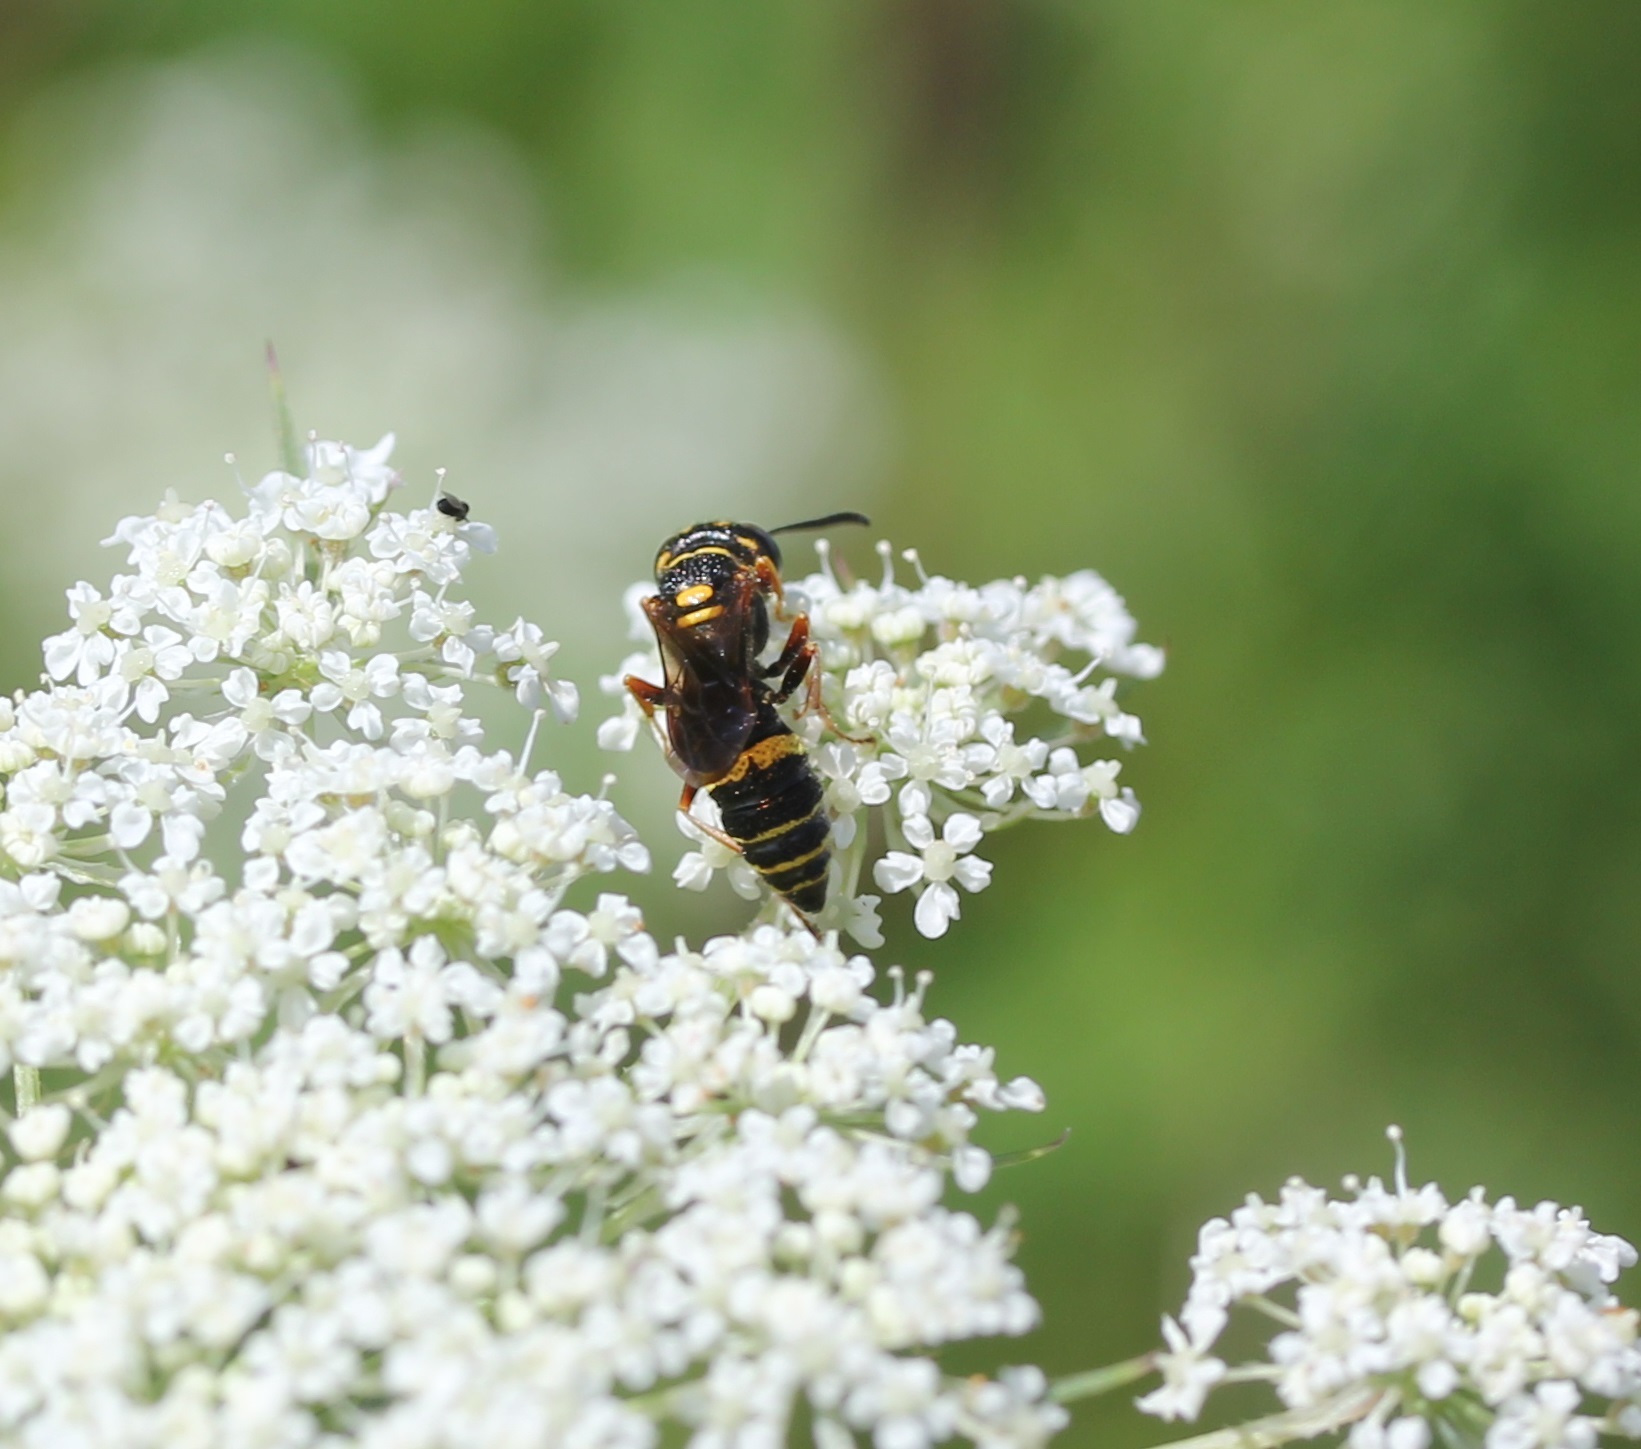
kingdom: Animalia
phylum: Arthropoda
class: Insecta
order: Hymenoptera
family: Crabronidae
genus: Philanthus
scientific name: Philanthus gibbosus
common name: Humped beewolf
